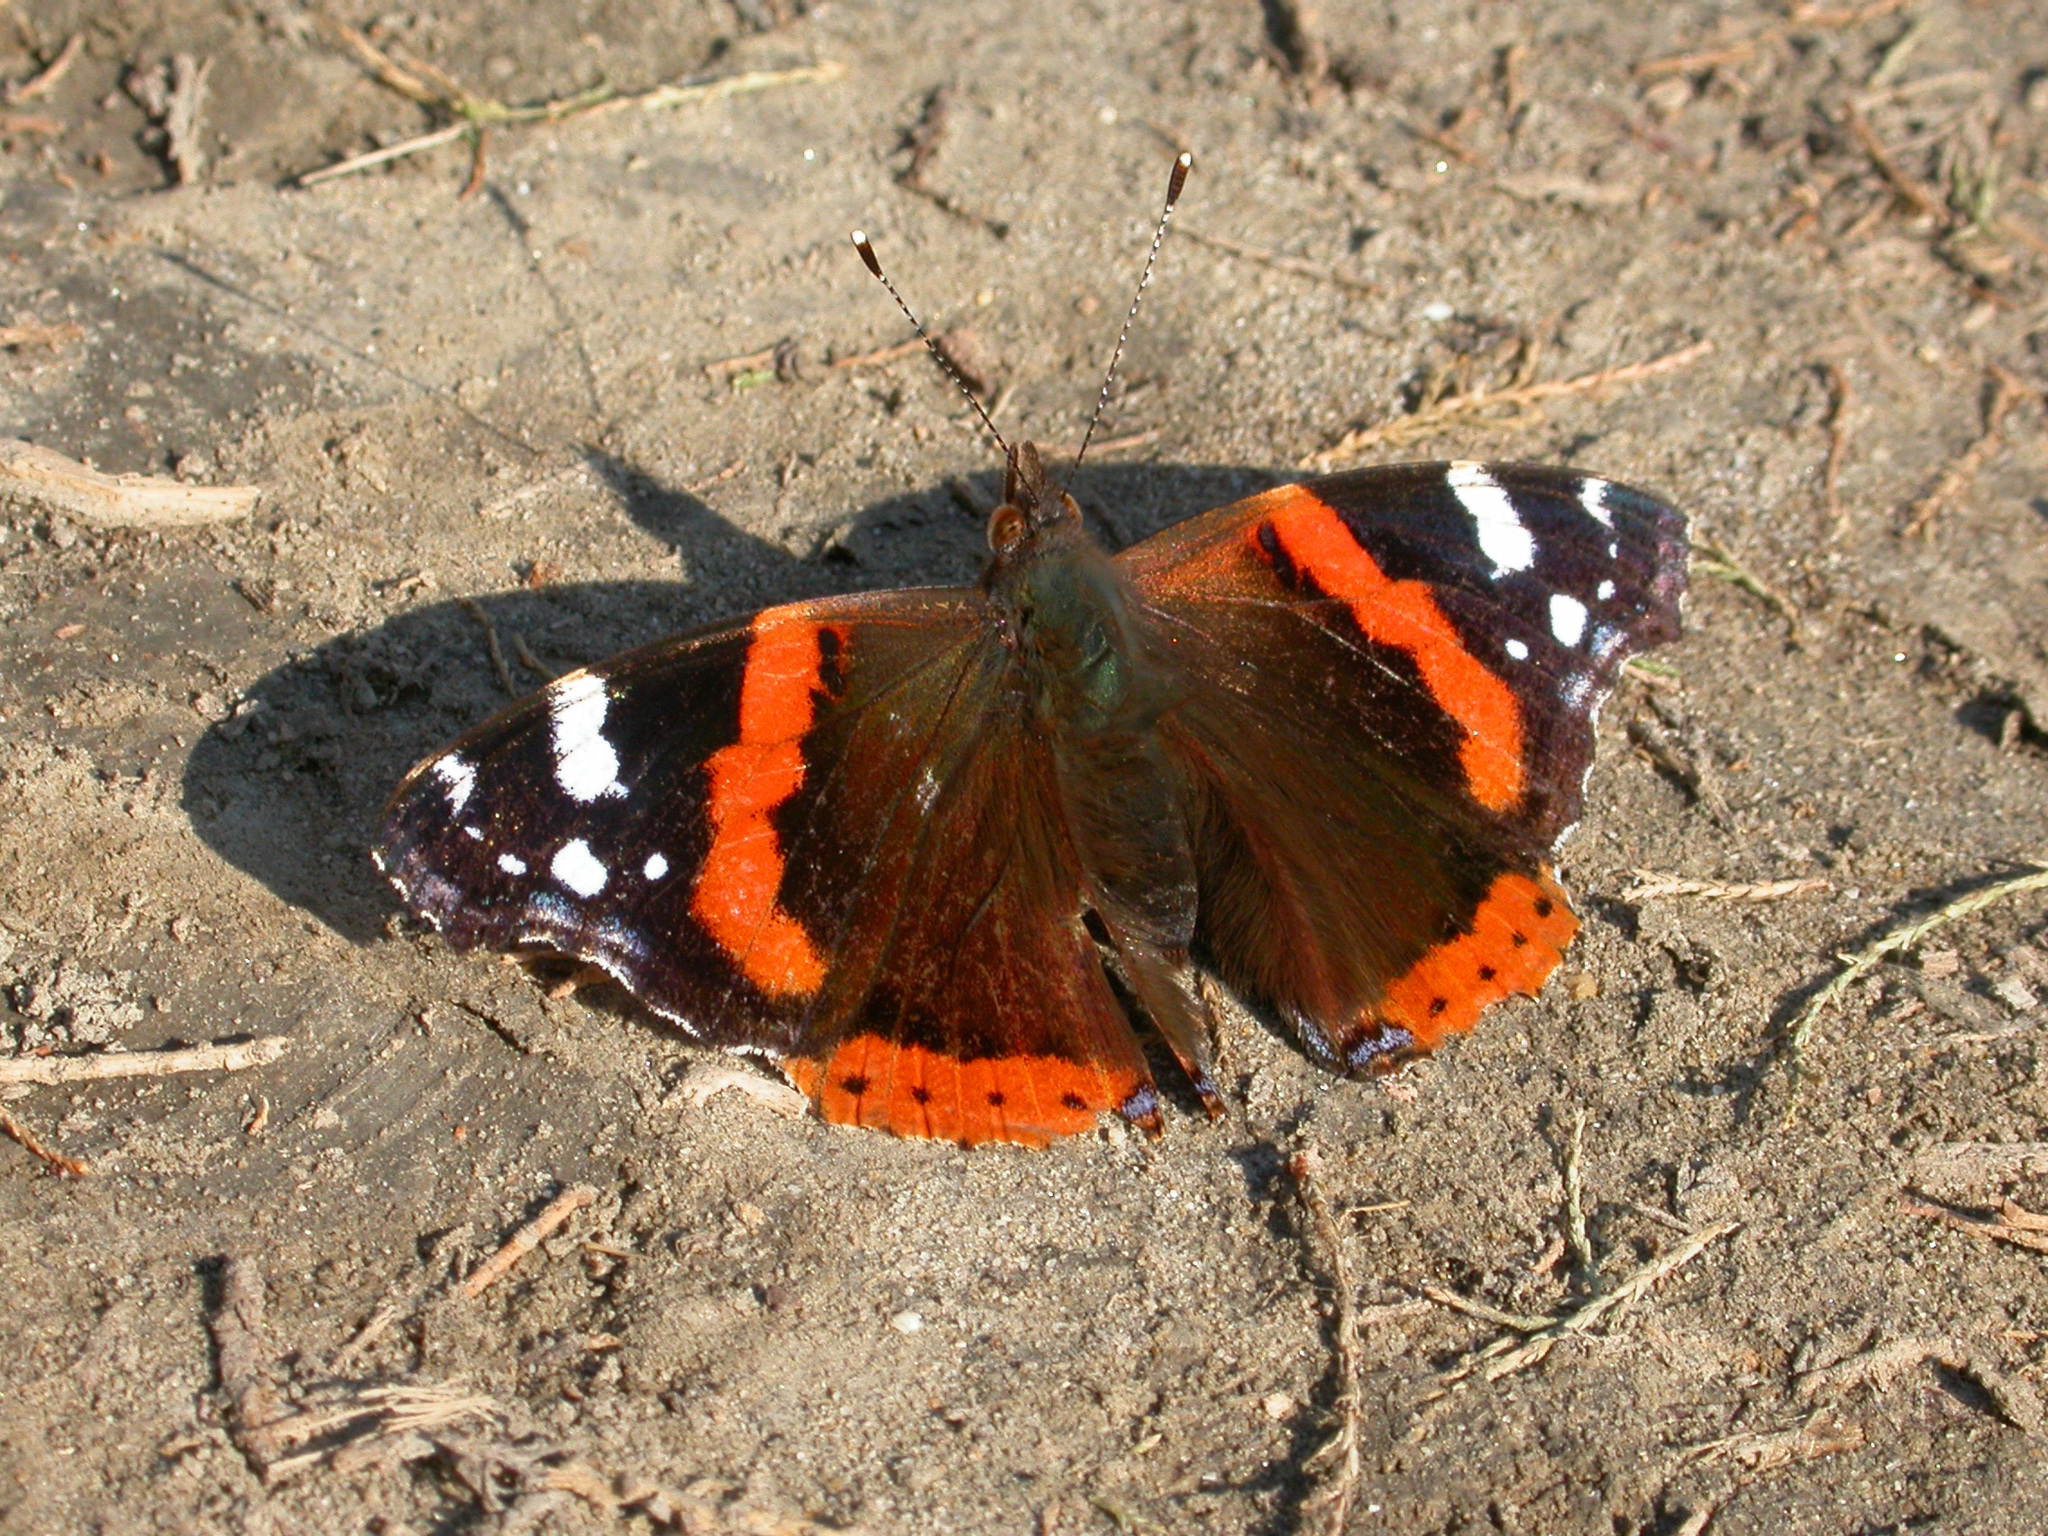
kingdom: Animalia
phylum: Arthropoda
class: Insecta
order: Lepidoptera
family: Nymphalidae
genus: Vanessa
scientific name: Vanessa atalanta
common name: Red admiral
